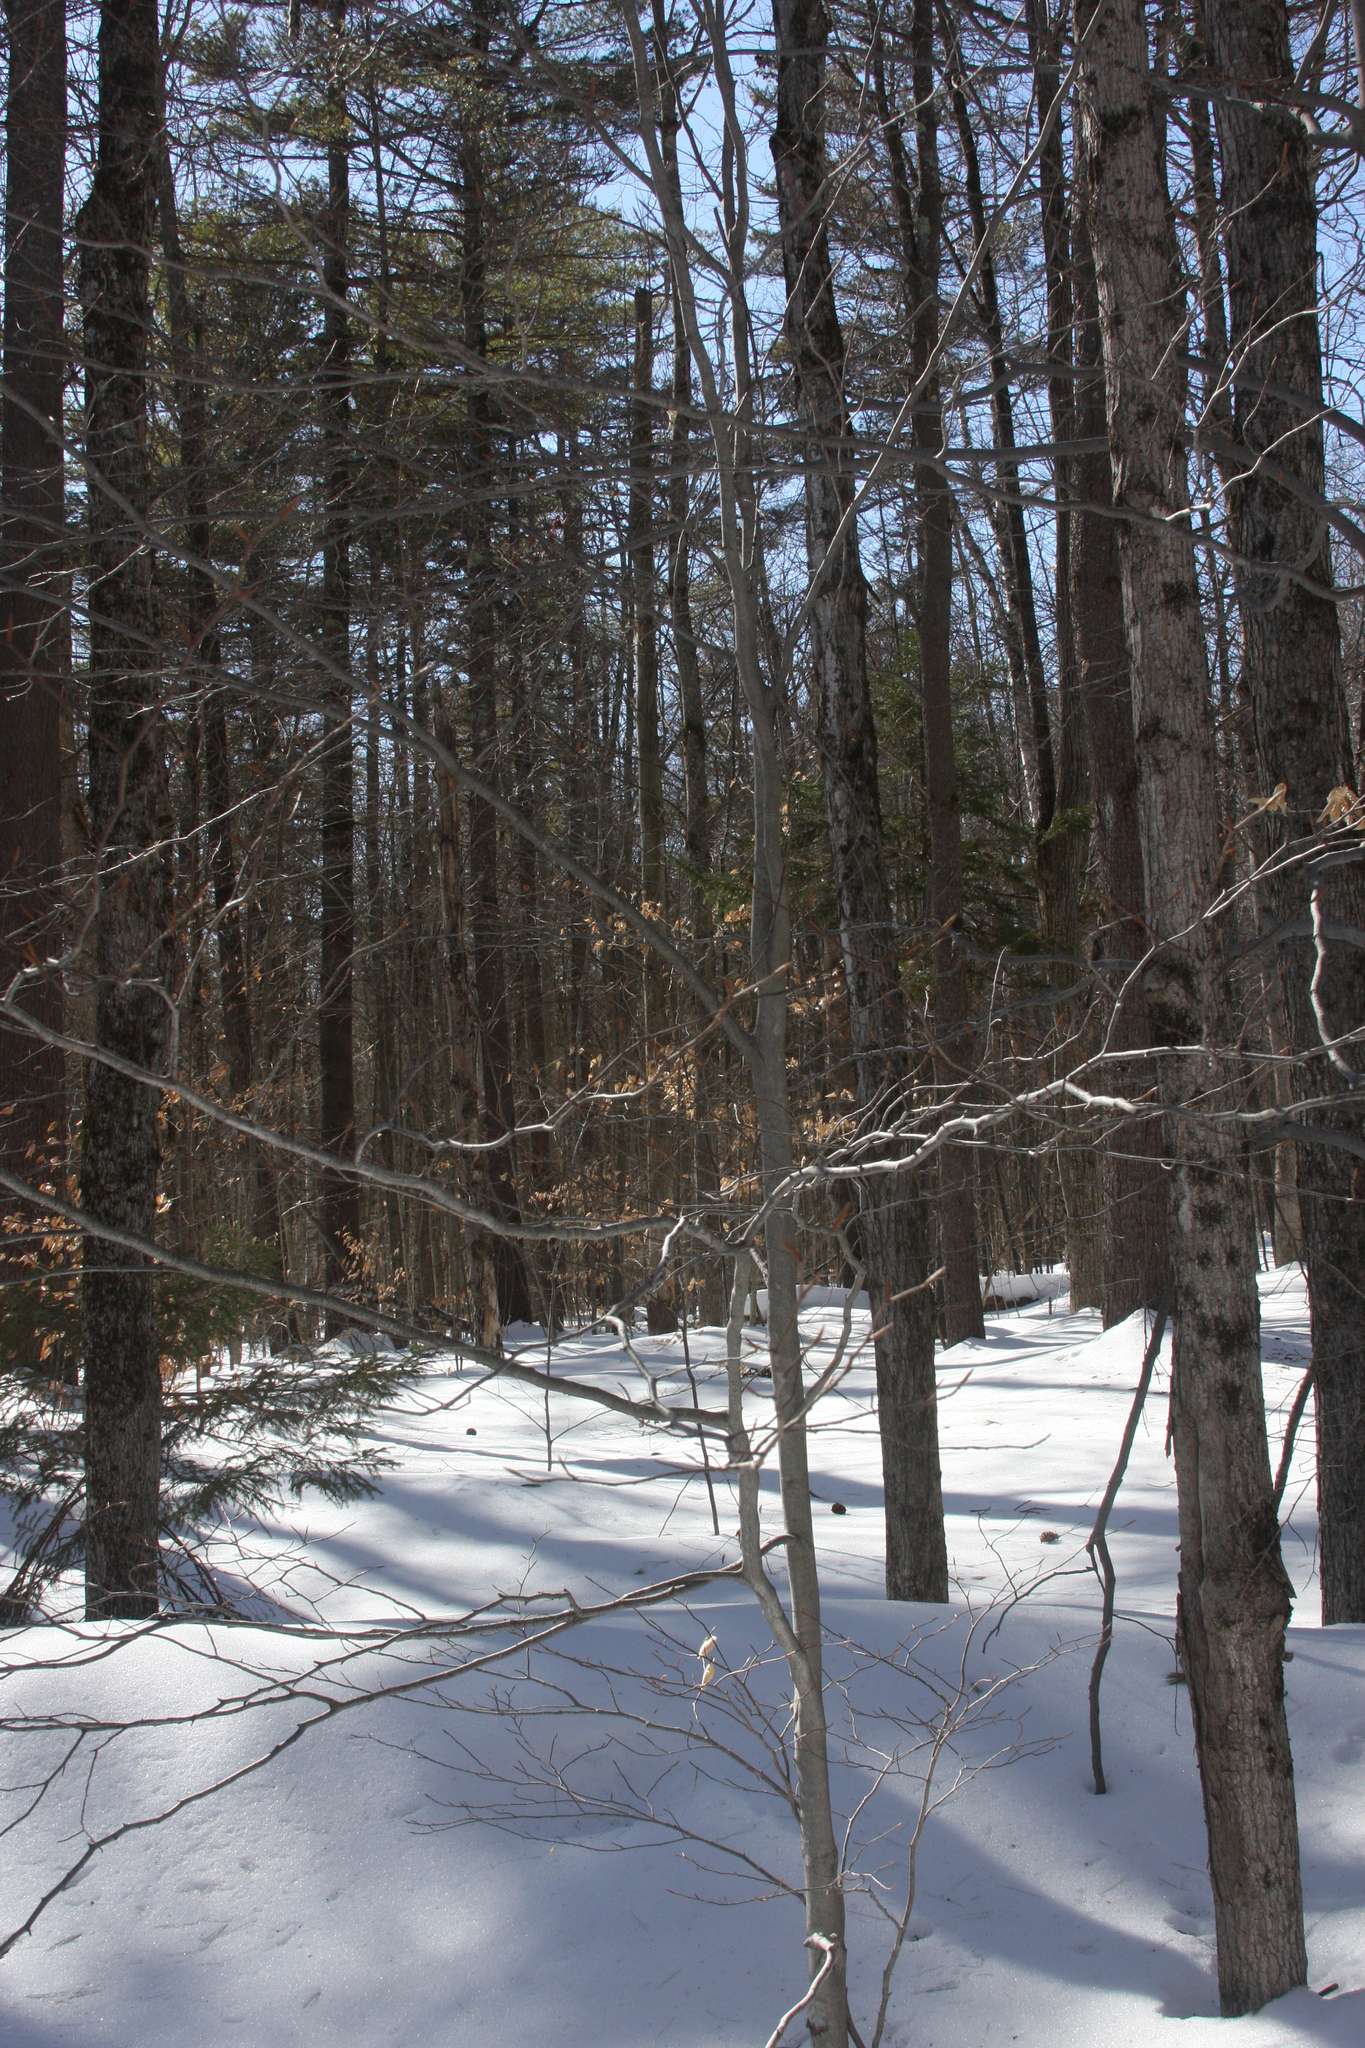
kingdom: Plantae
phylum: Tracheophyta
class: Magnoliopsida
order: Fagales
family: Fagaceae
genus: Fagus
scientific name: Fagus grandifolia
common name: American beech
